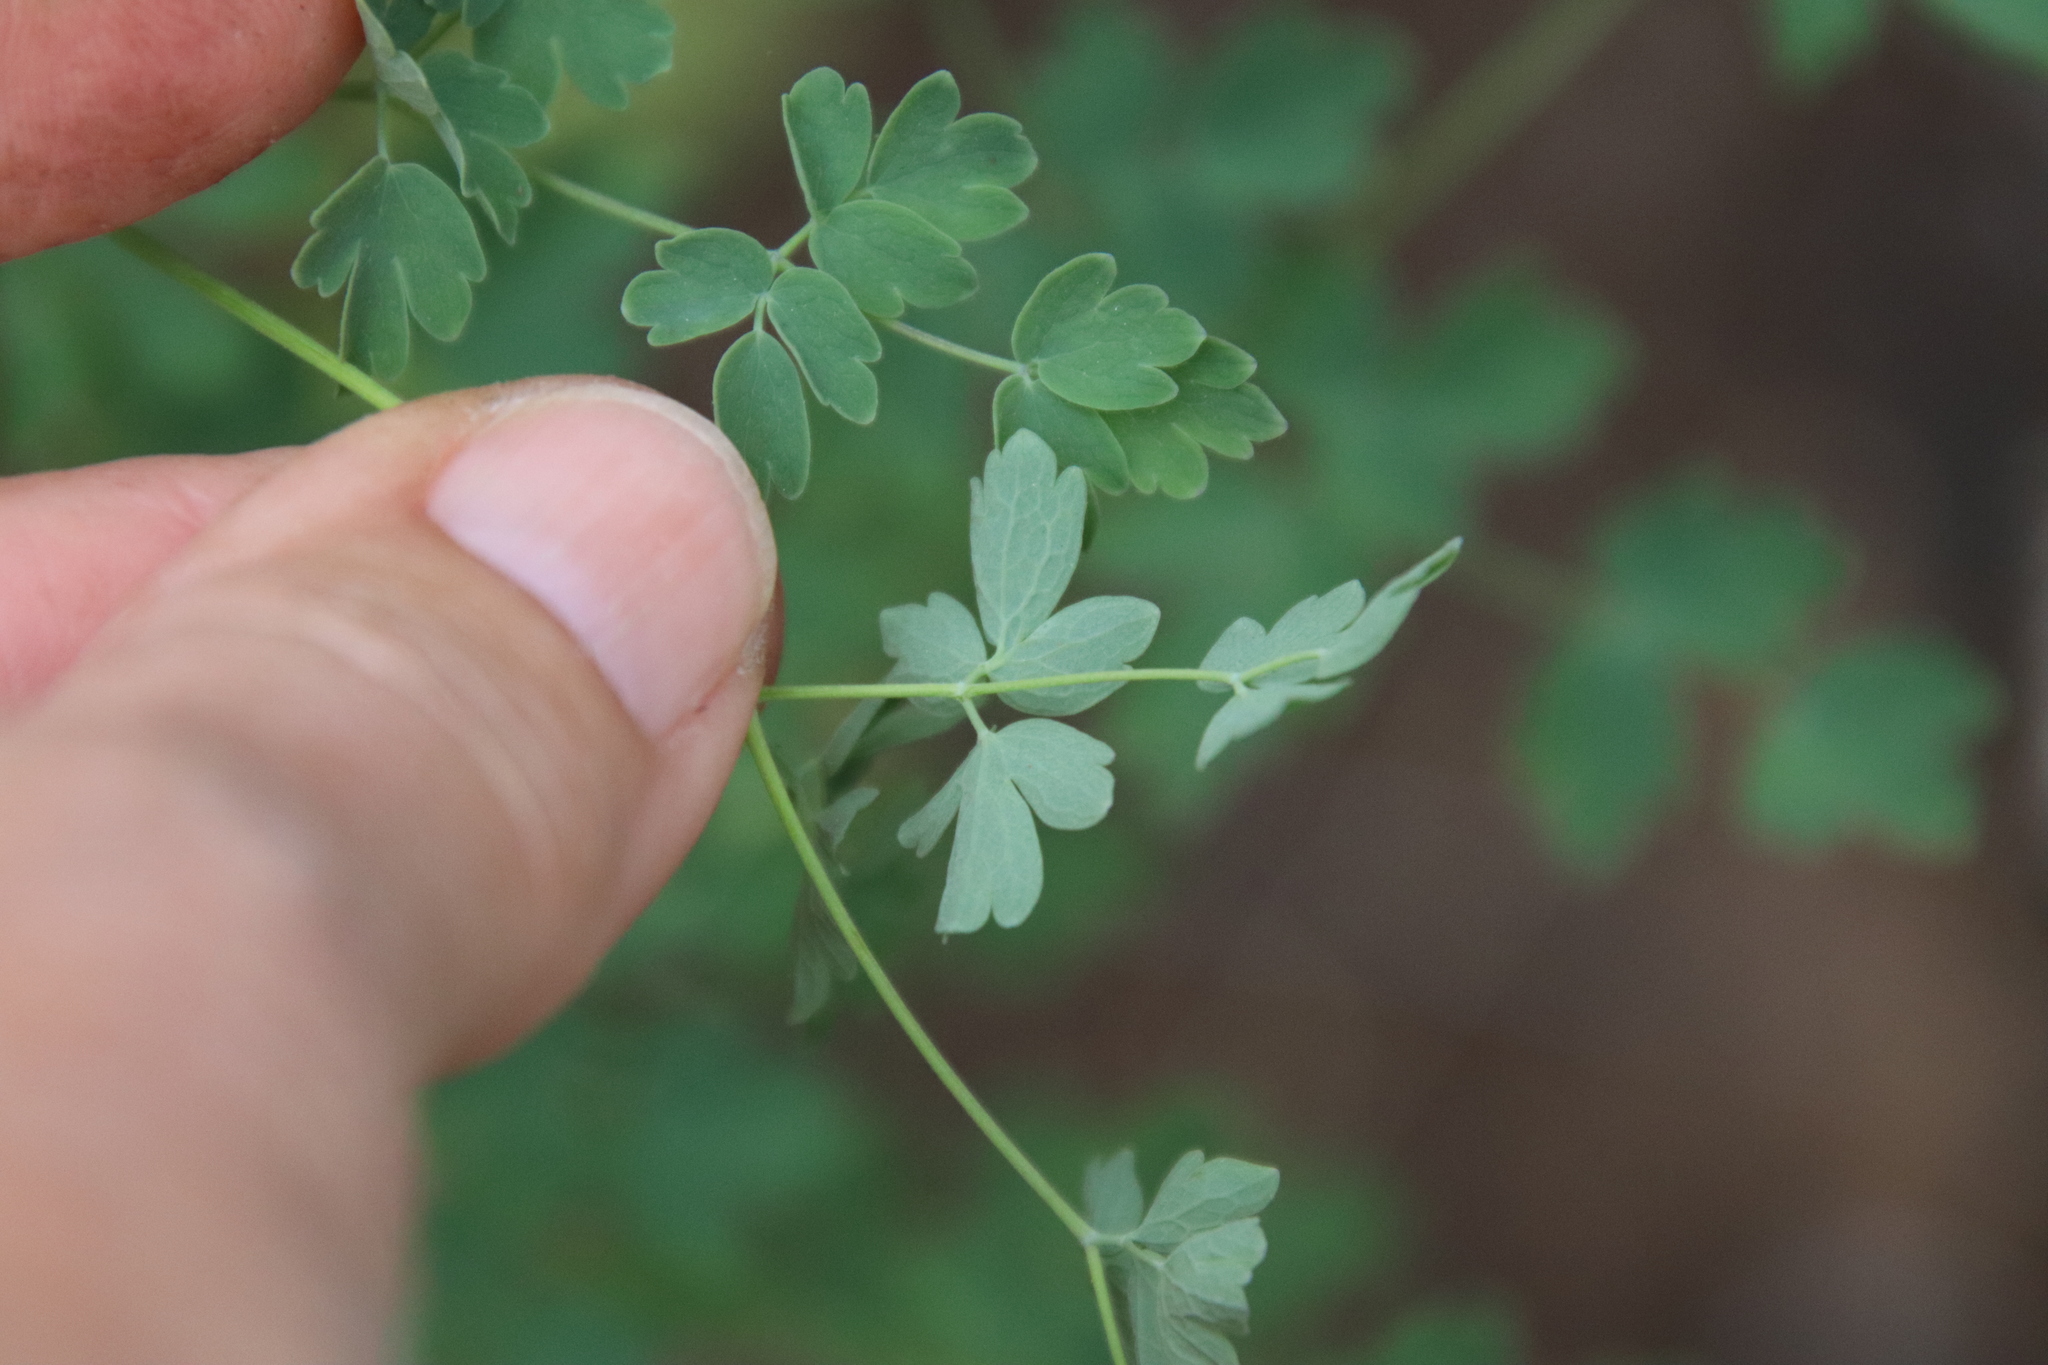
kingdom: Plantae
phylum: Tracheophyta
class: Magnoliopsida
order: Ranunculales
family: Ranunculaceae
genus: Thalictrum
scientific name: Thalictrum fendleri
